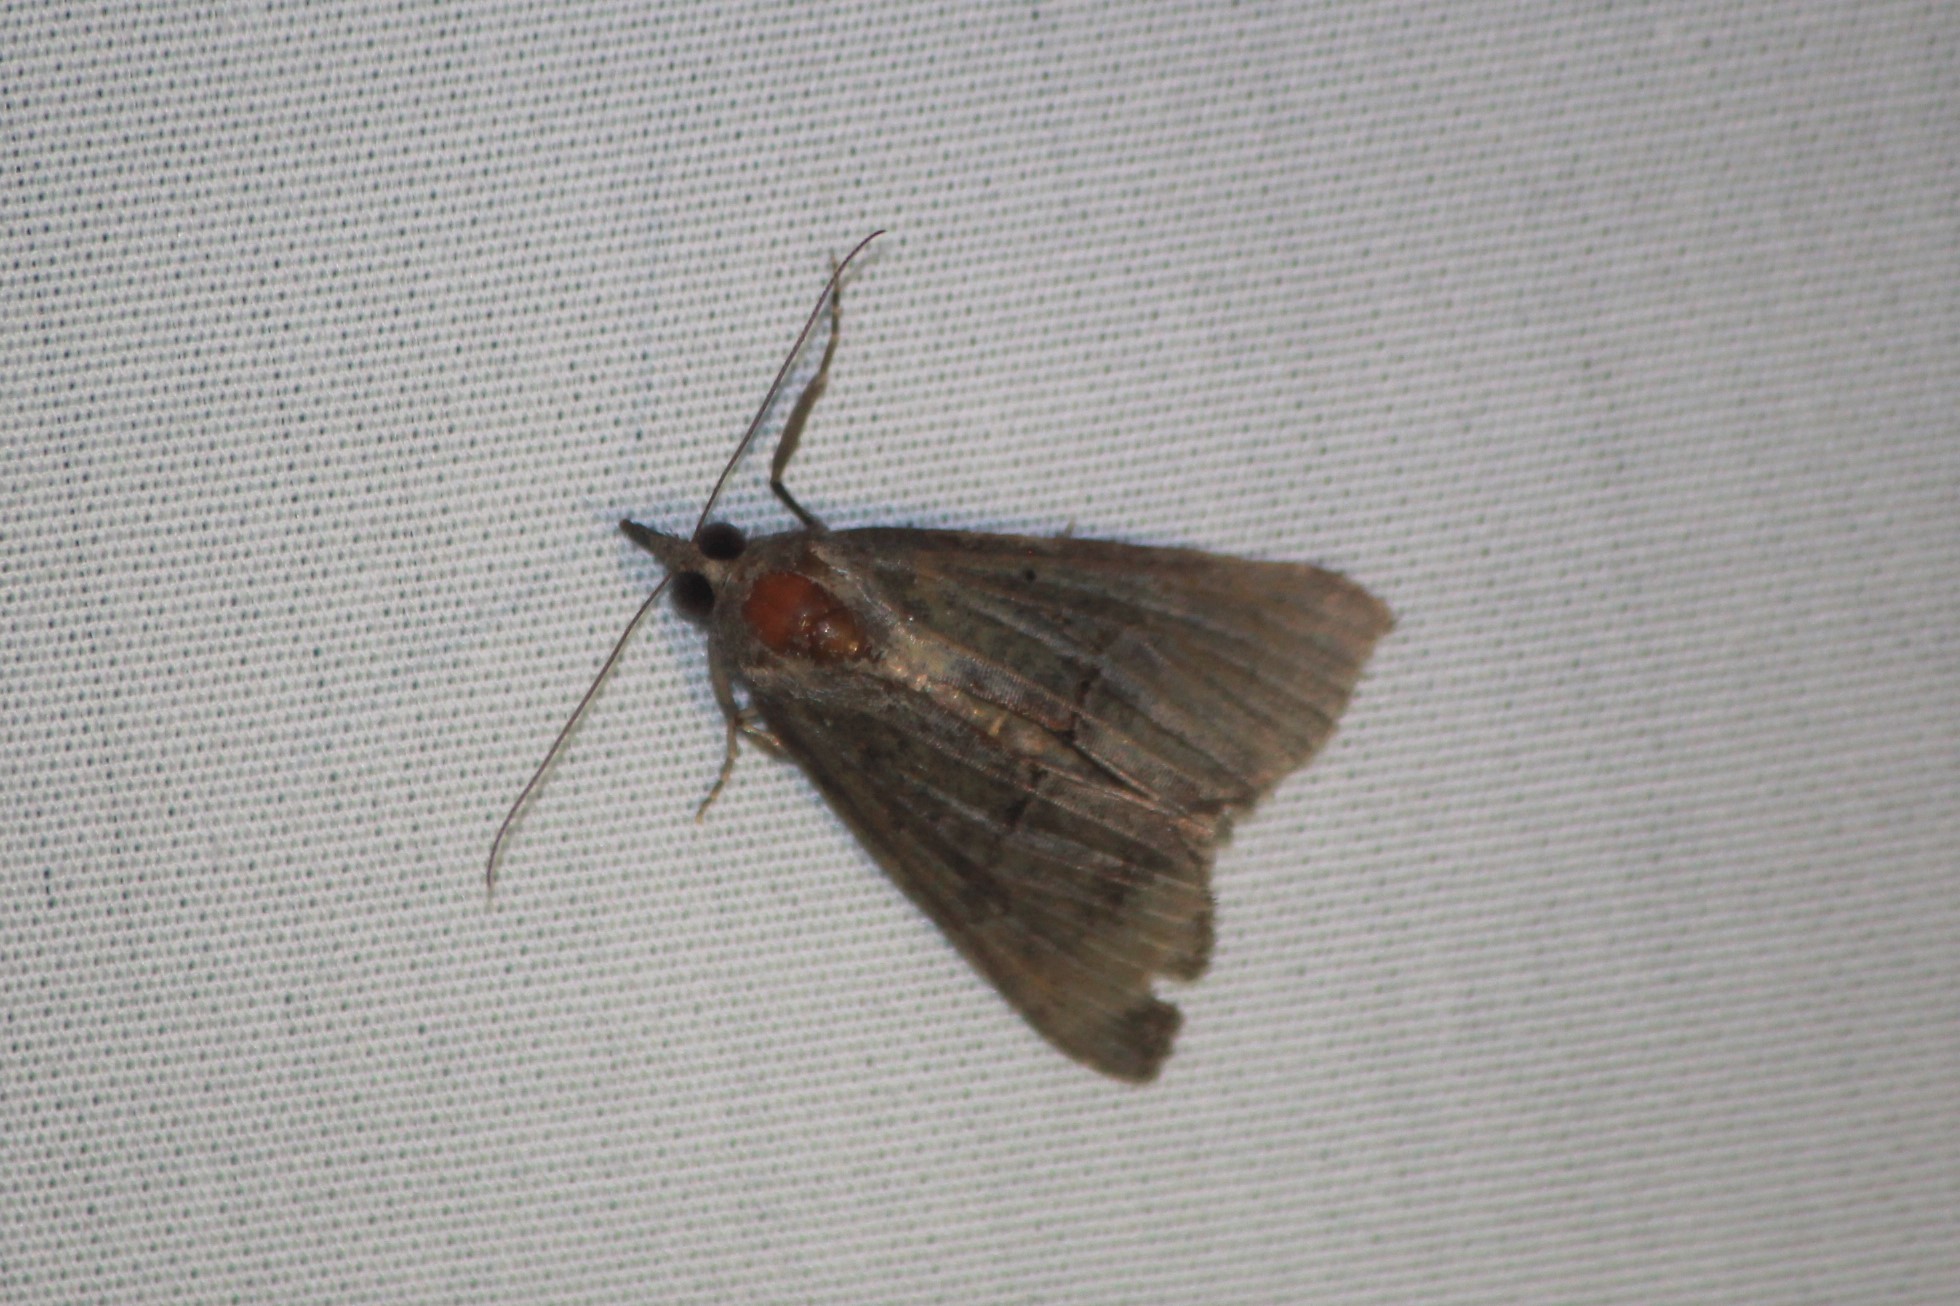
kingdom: Animalia
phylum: Arthropoda
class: Insecta
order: Lepidoptera
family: Erebidae
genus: Hypena
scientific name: Hypena scabra
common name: Green cloverworm
